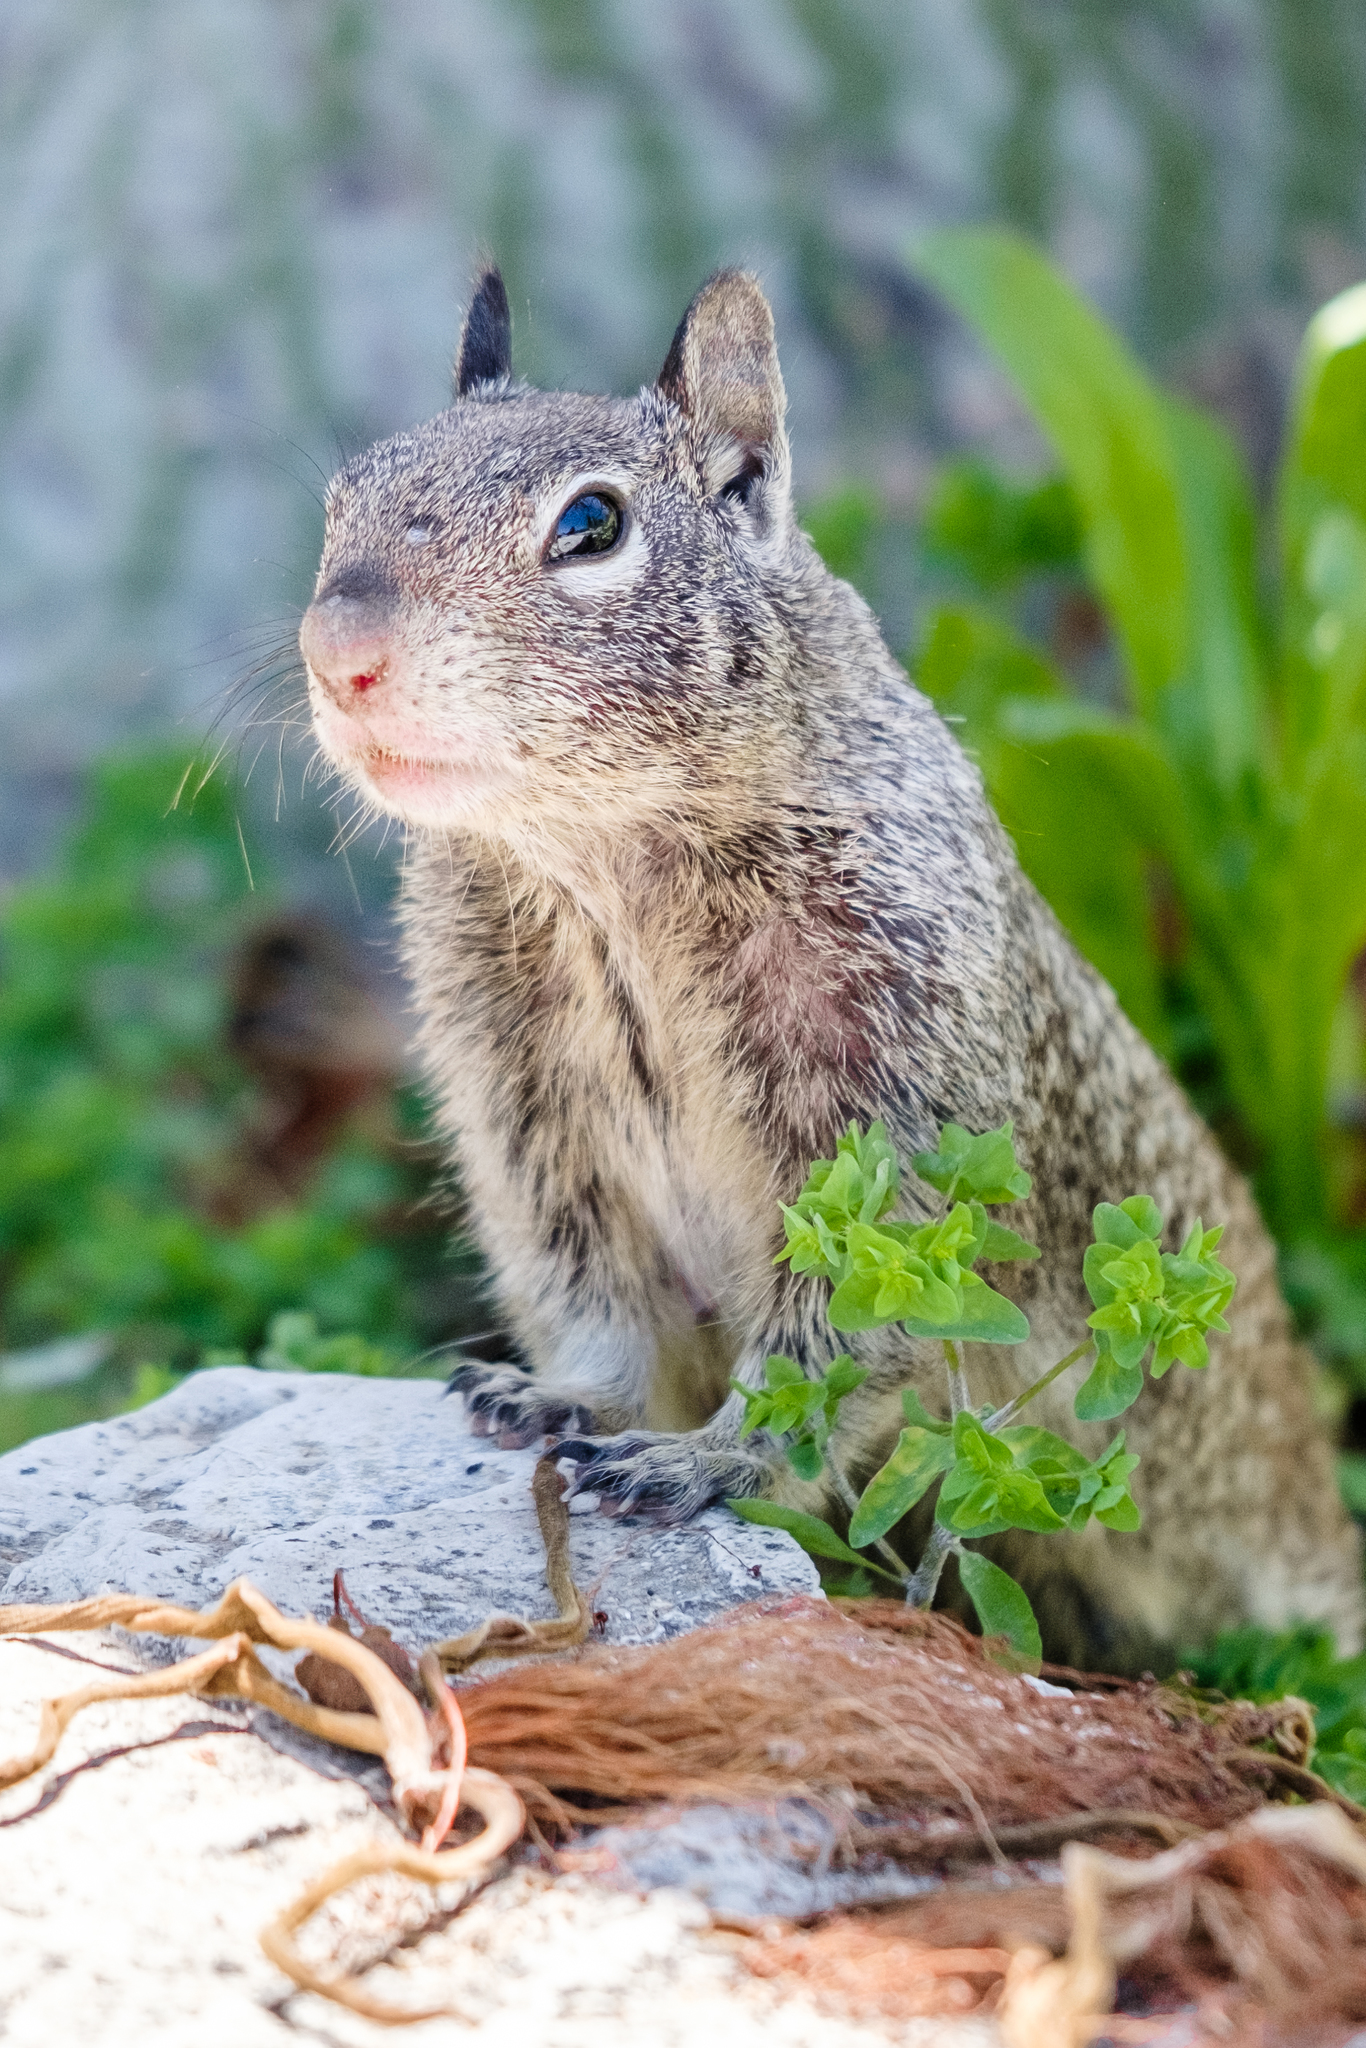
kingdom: Animalia
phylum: Chordata
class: Mammalia
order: Rodentia
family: Sciuridae
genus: Otospermophilus
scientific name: Otospermophilus beecheyi
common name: California ground squirrel
